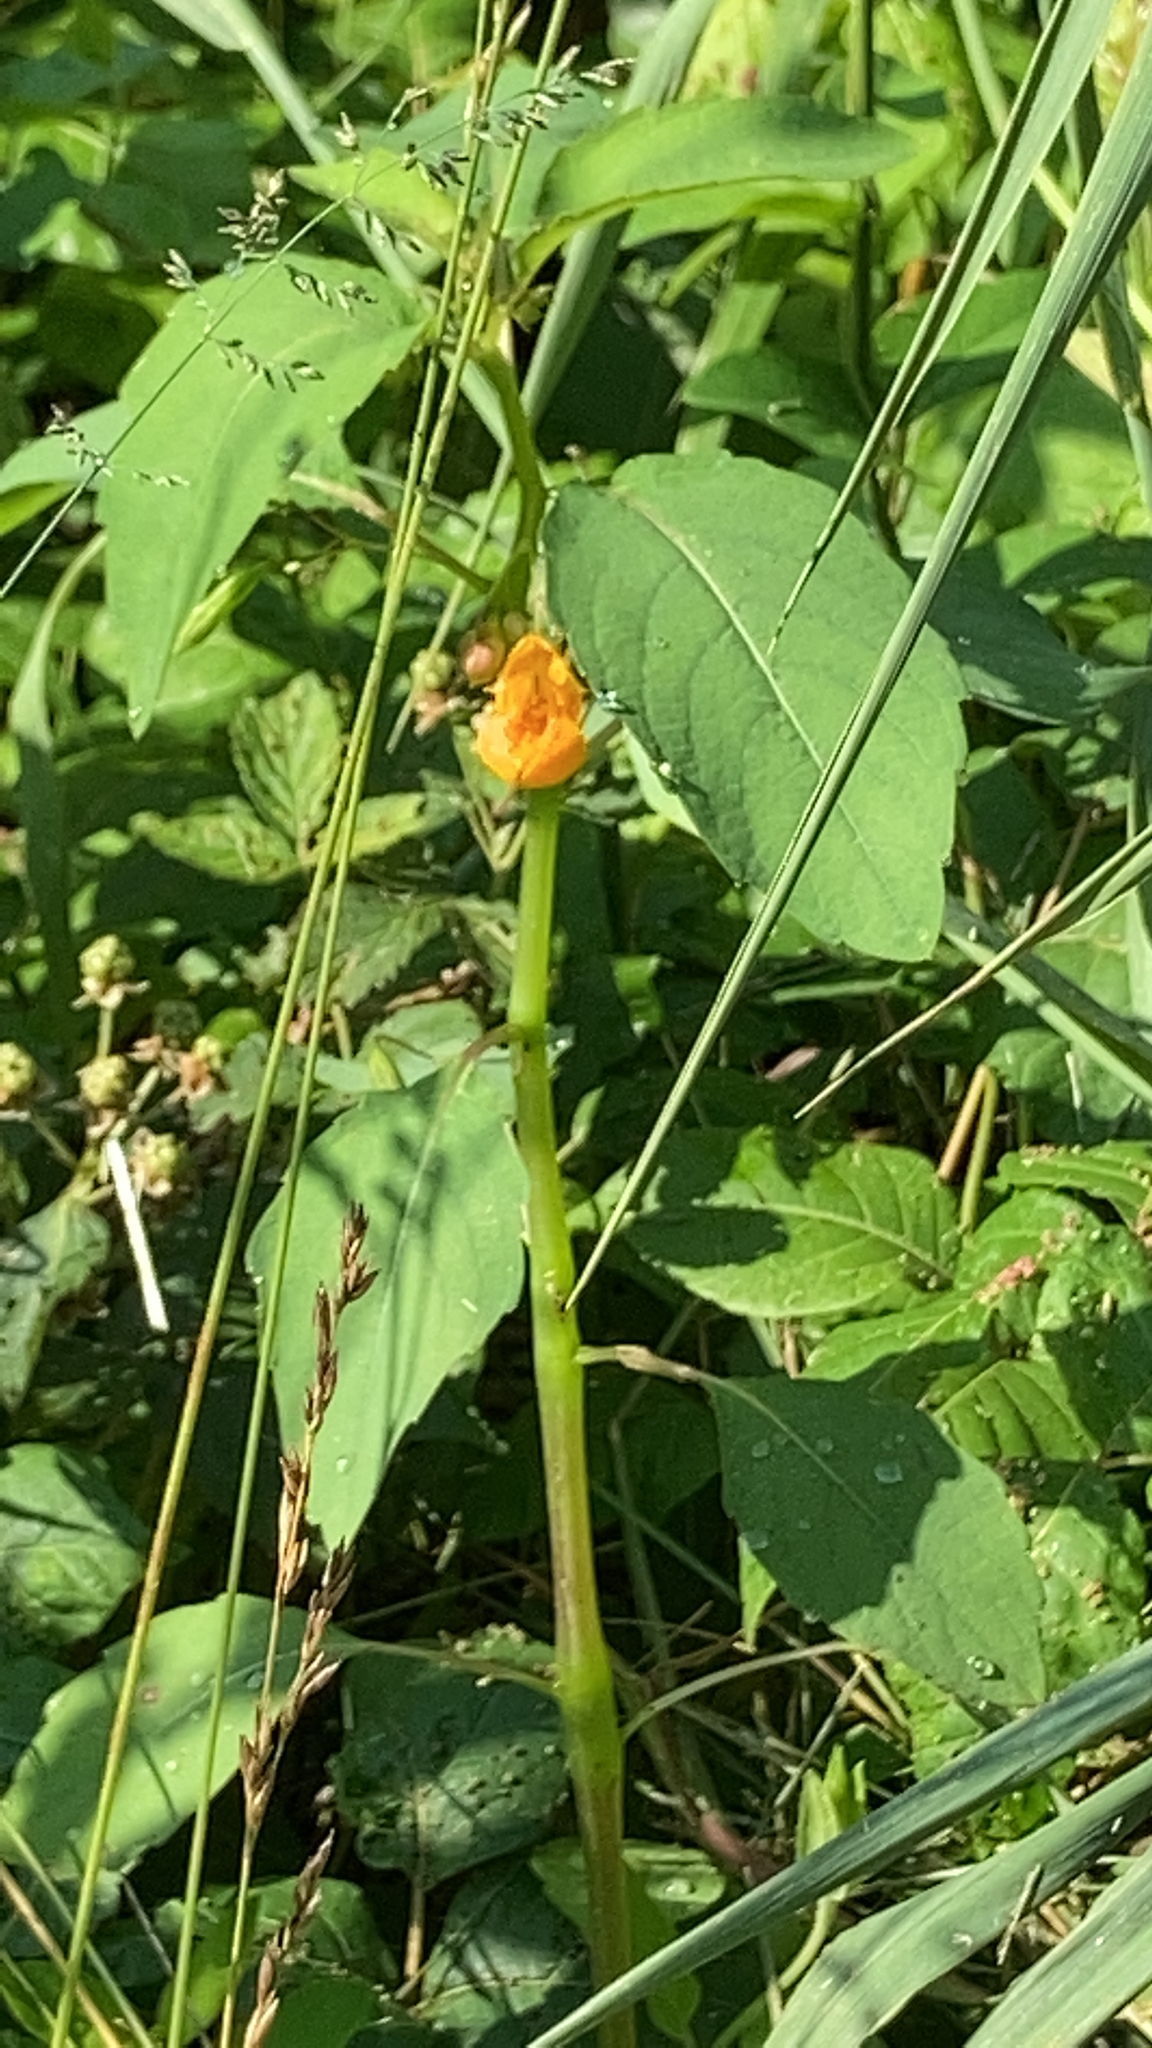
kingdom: Plantae
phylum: Tracheophyta
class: Magnoliopsida
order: Ericales
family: Balsaminaceae
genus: Impatiens
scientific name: Impatiens capensis
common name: Orange balsam
